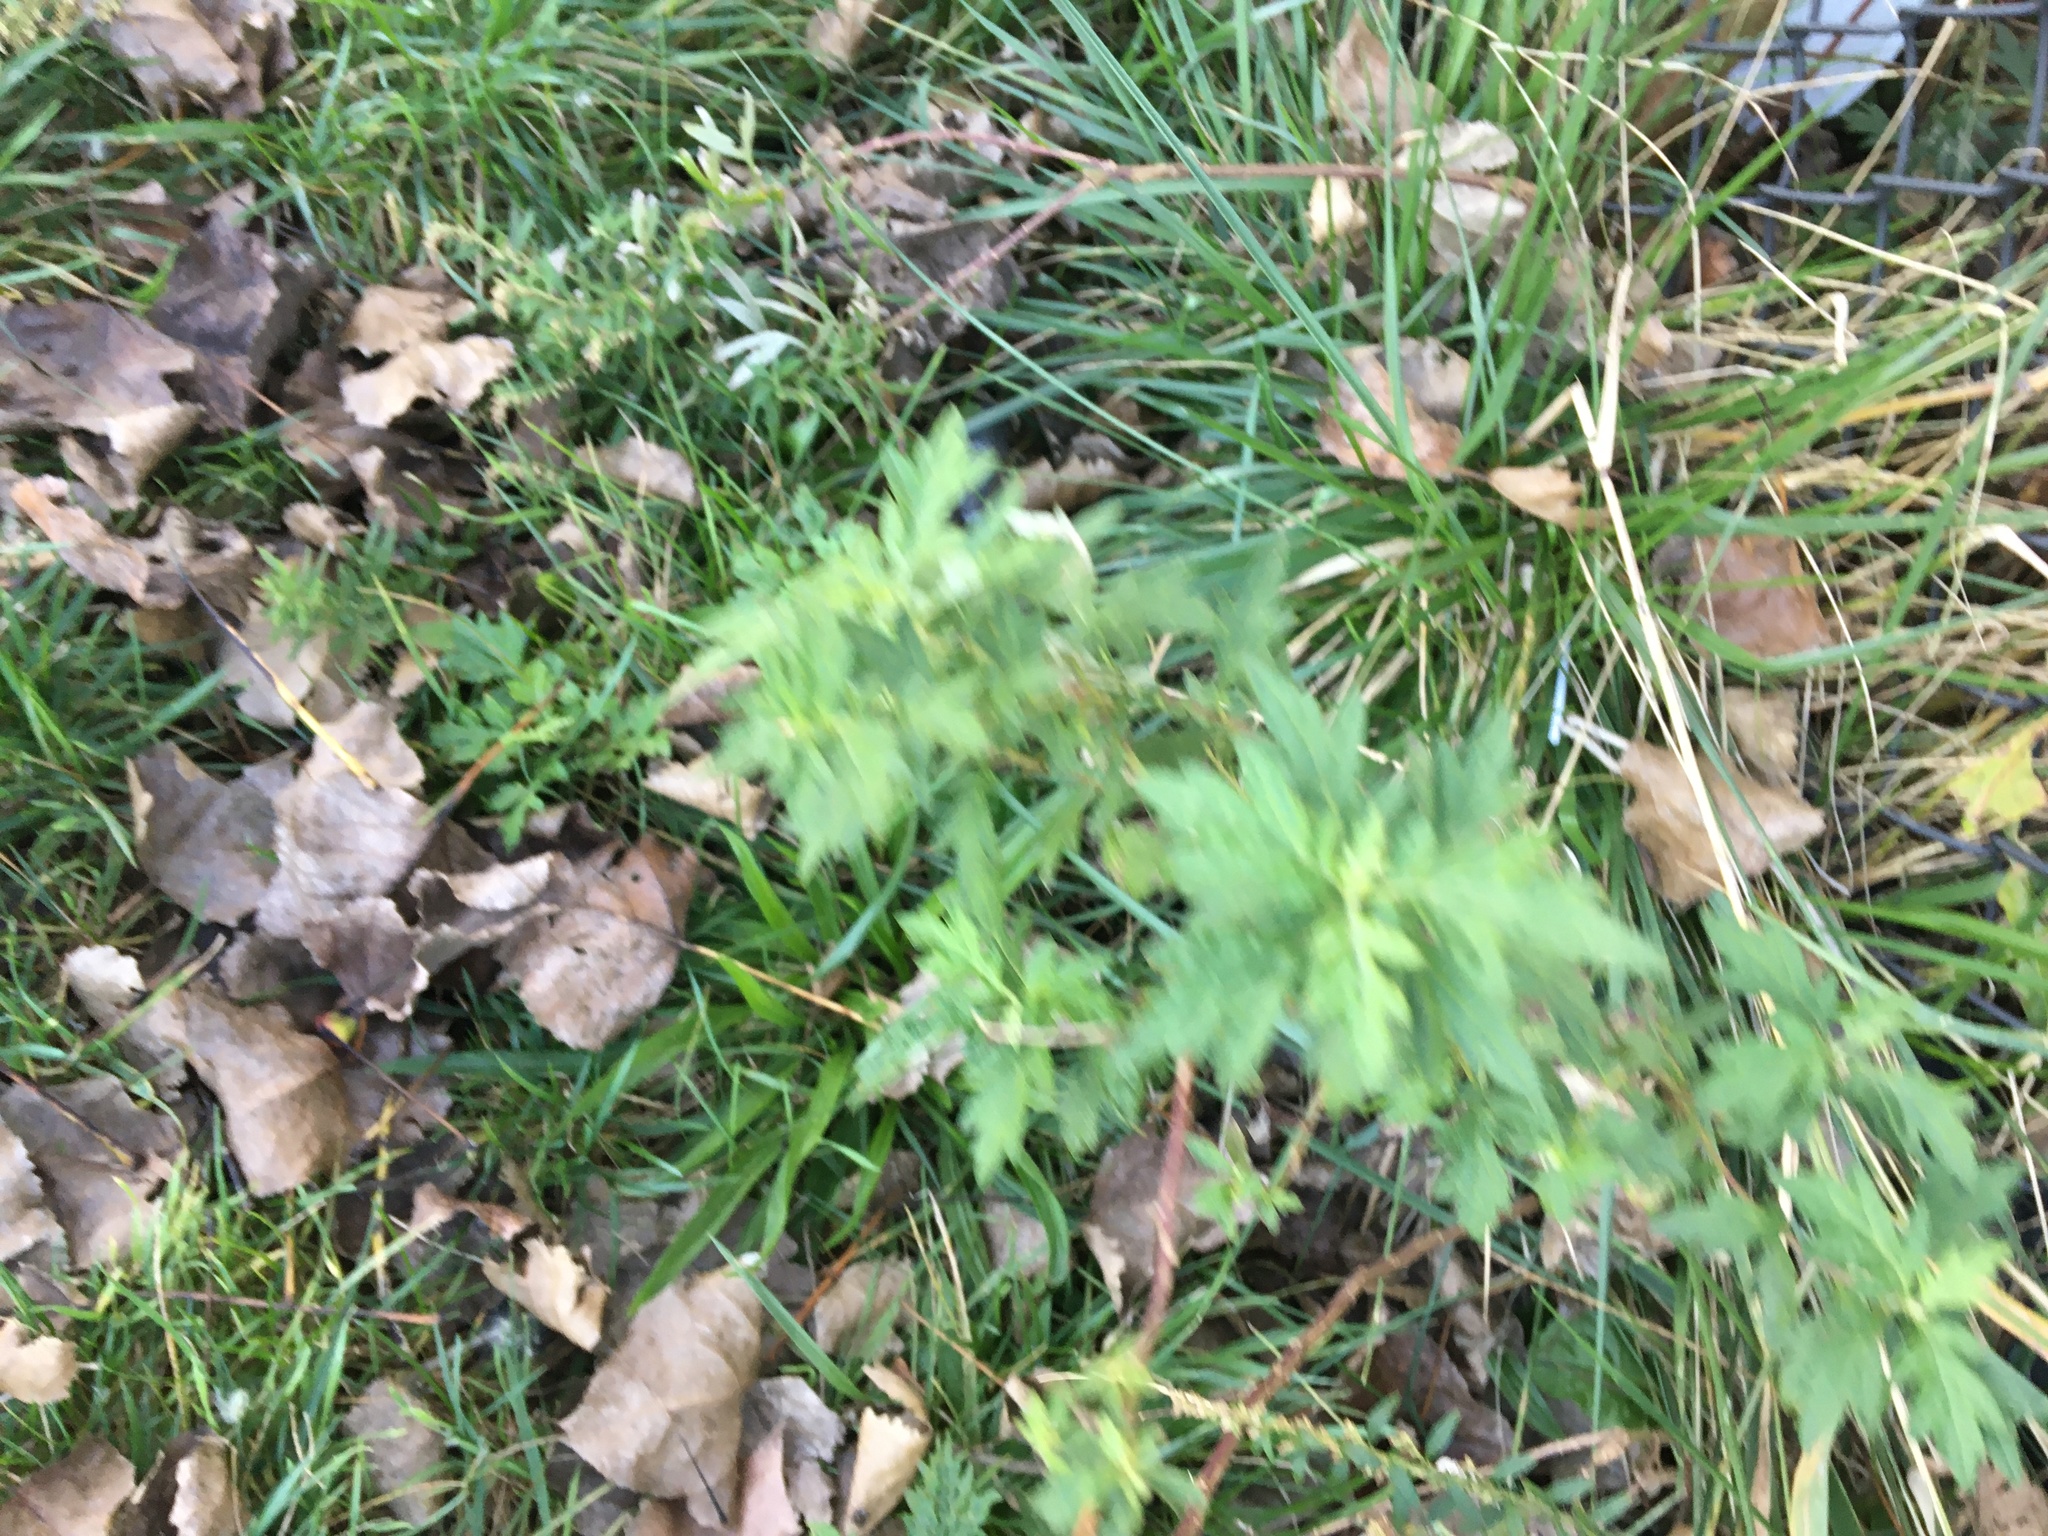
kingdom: Plantae
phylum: Tracheophyta
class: Magnoliopsida
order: Asterales
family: Asteraceae
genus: Artemisia
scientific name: Artemisia vulgaris
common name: Mugwort
